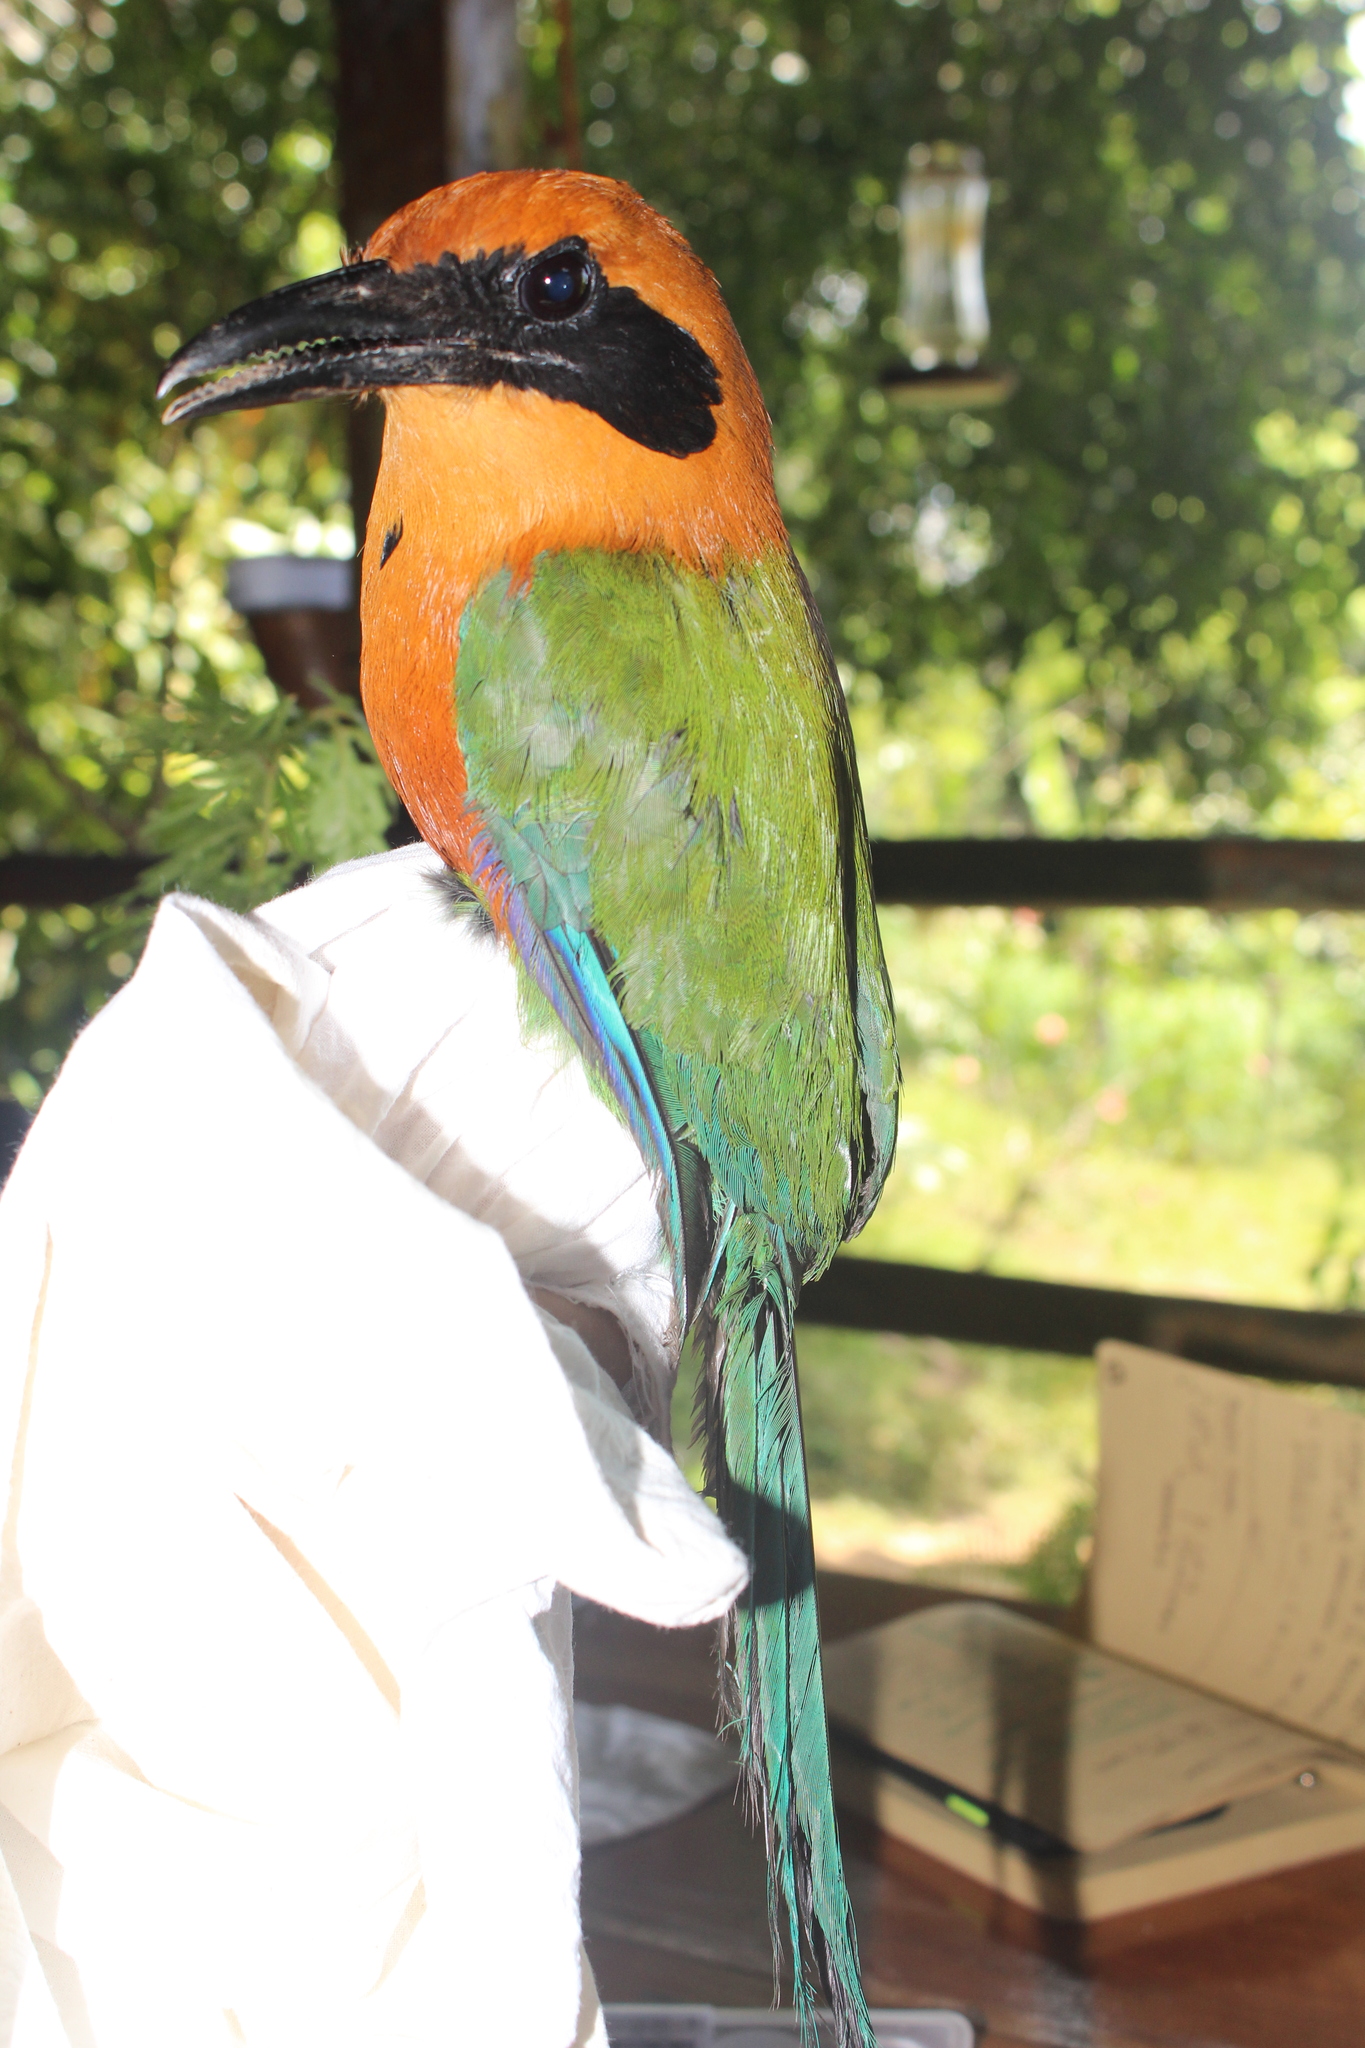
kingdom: Animalia
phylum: Chordata
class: Aves
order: Coraciiformes
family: Momotidae
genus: Baryphthengus
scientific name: Baryphthengus martii
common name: Rufous motmot
